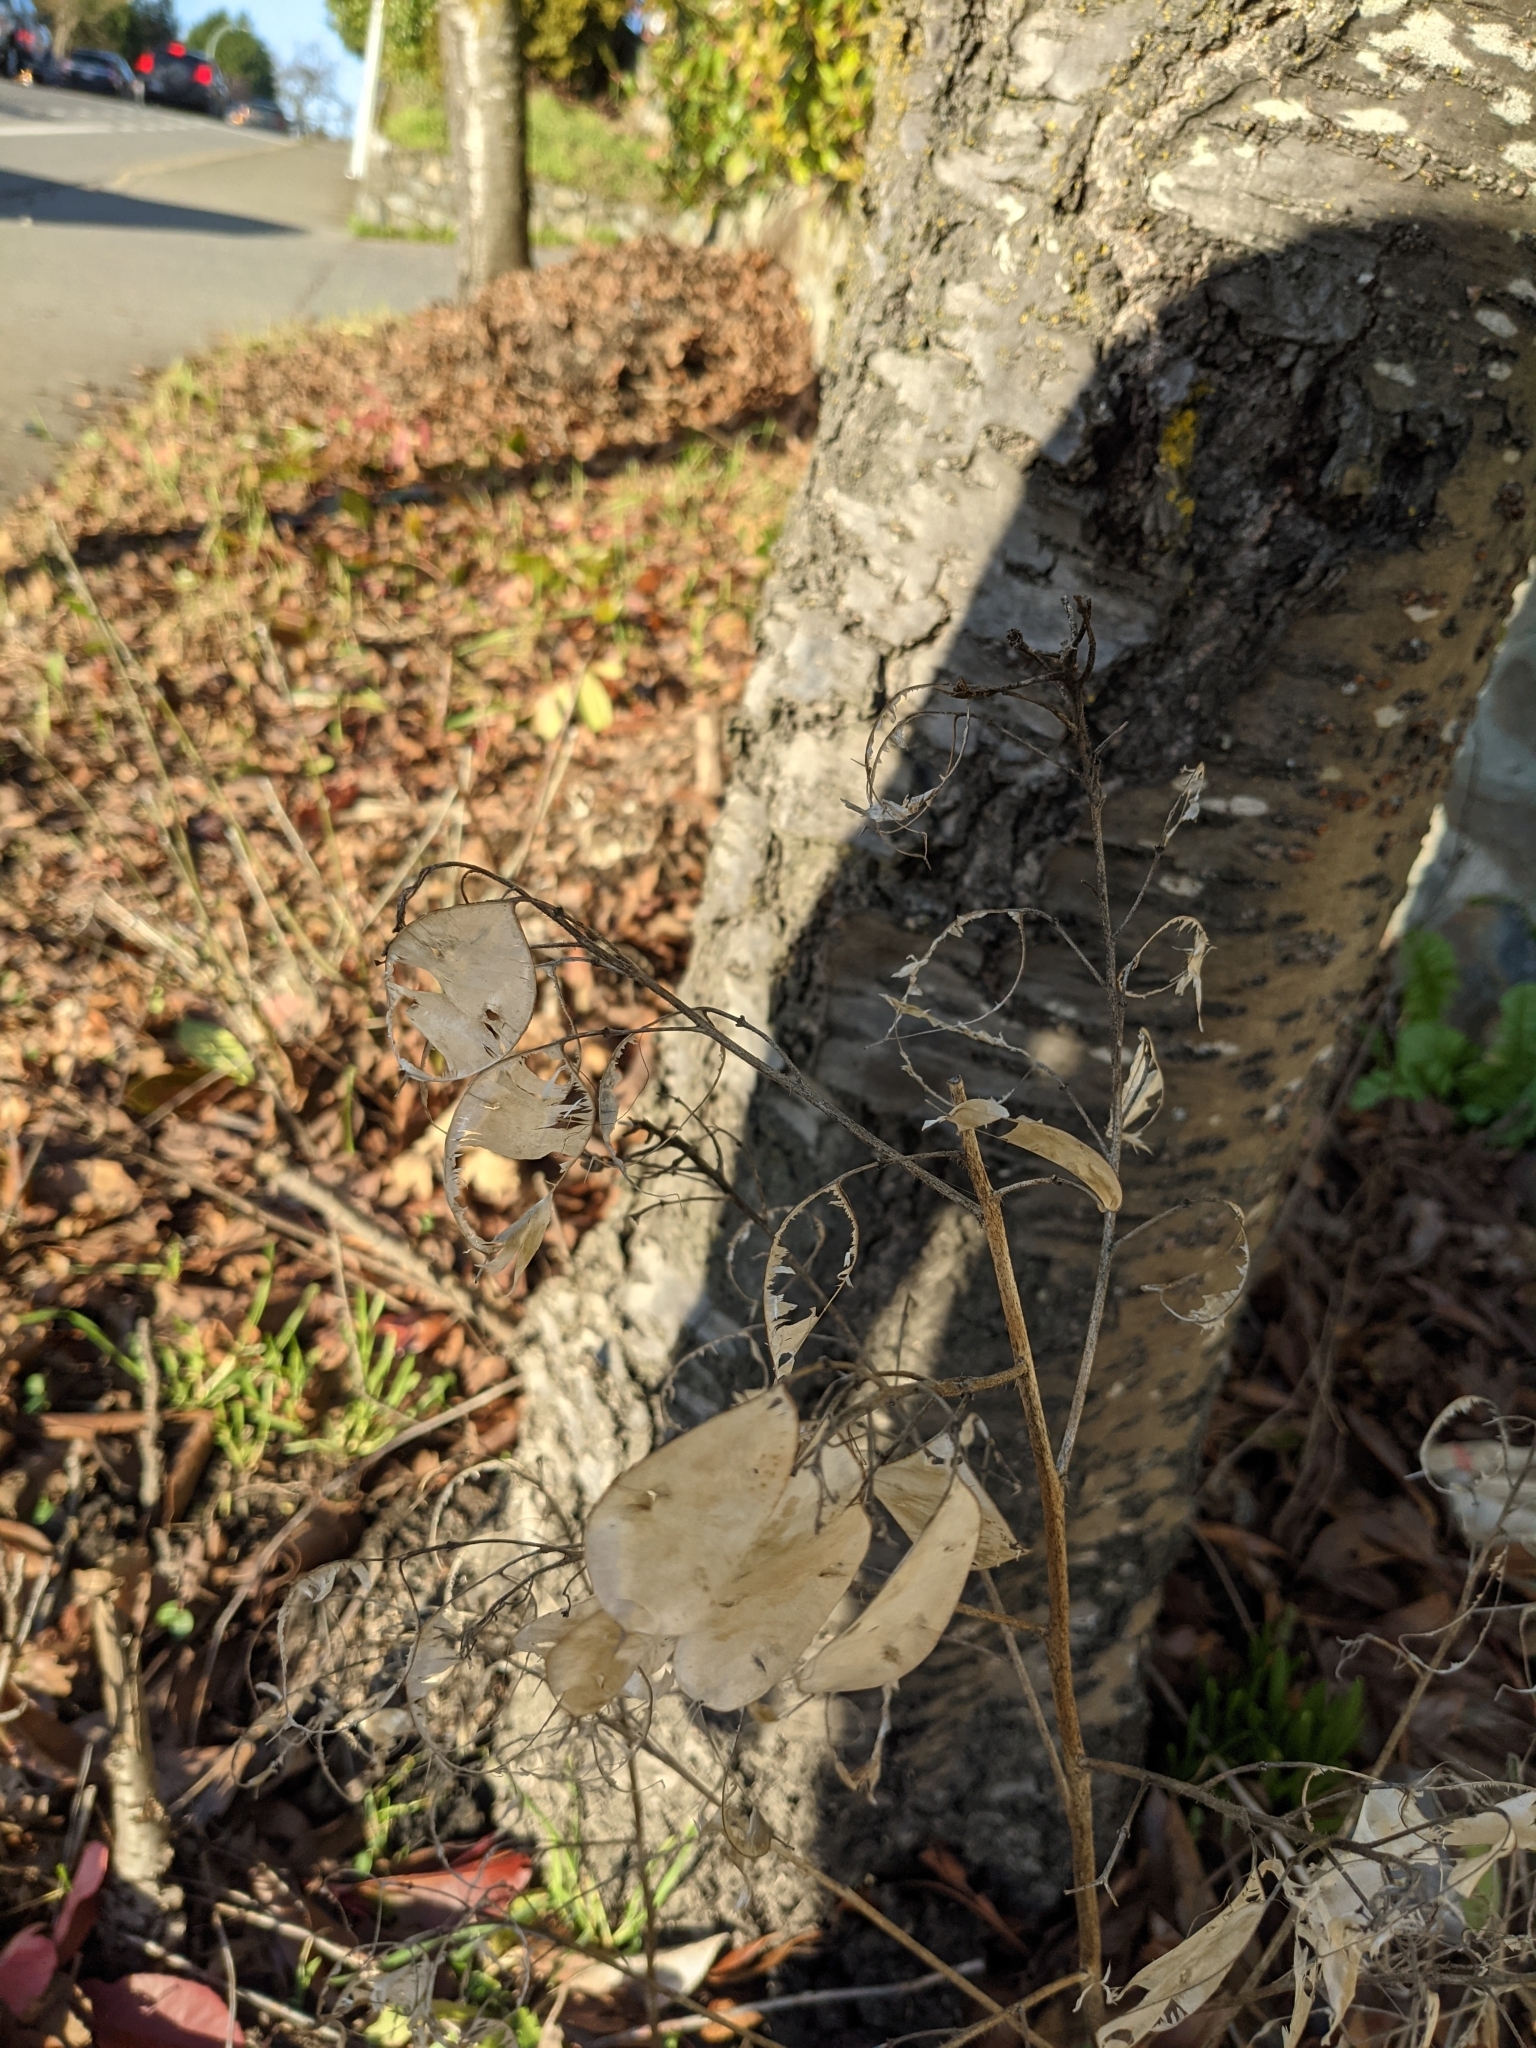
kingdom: Plantae
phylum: Tracheophyta
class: Magnoliopsida
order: Brassicales
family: Brassicaceae
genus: Lunaria
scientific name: Lunaria annua
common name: Honesty
